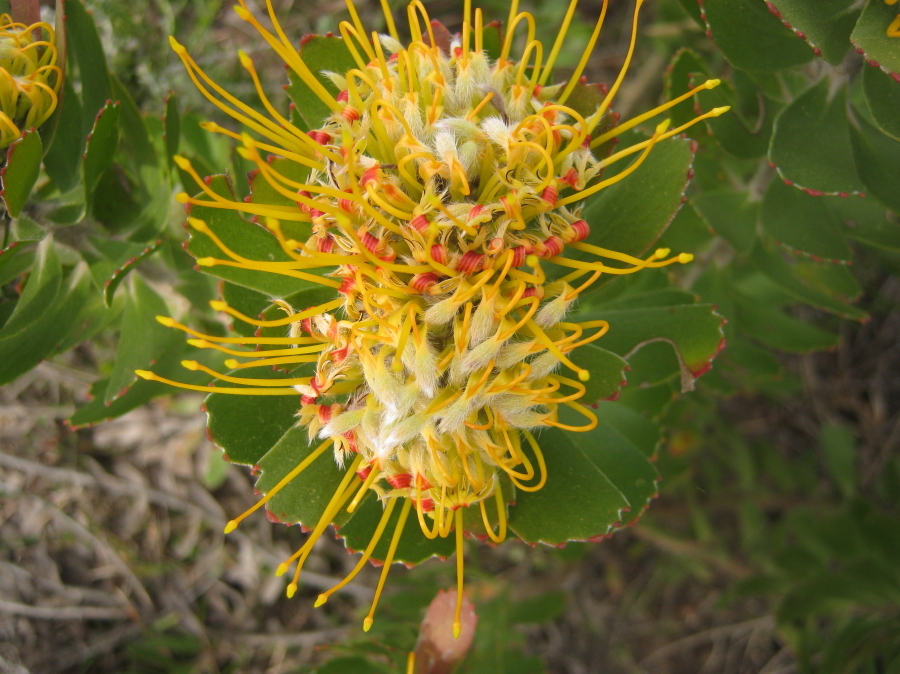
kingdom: Plantae
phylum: Tracheophyta
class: Magnoliopsida
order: Proteales
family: Proteaceae
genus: Leucospermum
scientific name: Leucospermum praecox
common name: Mossel bay pincushion
